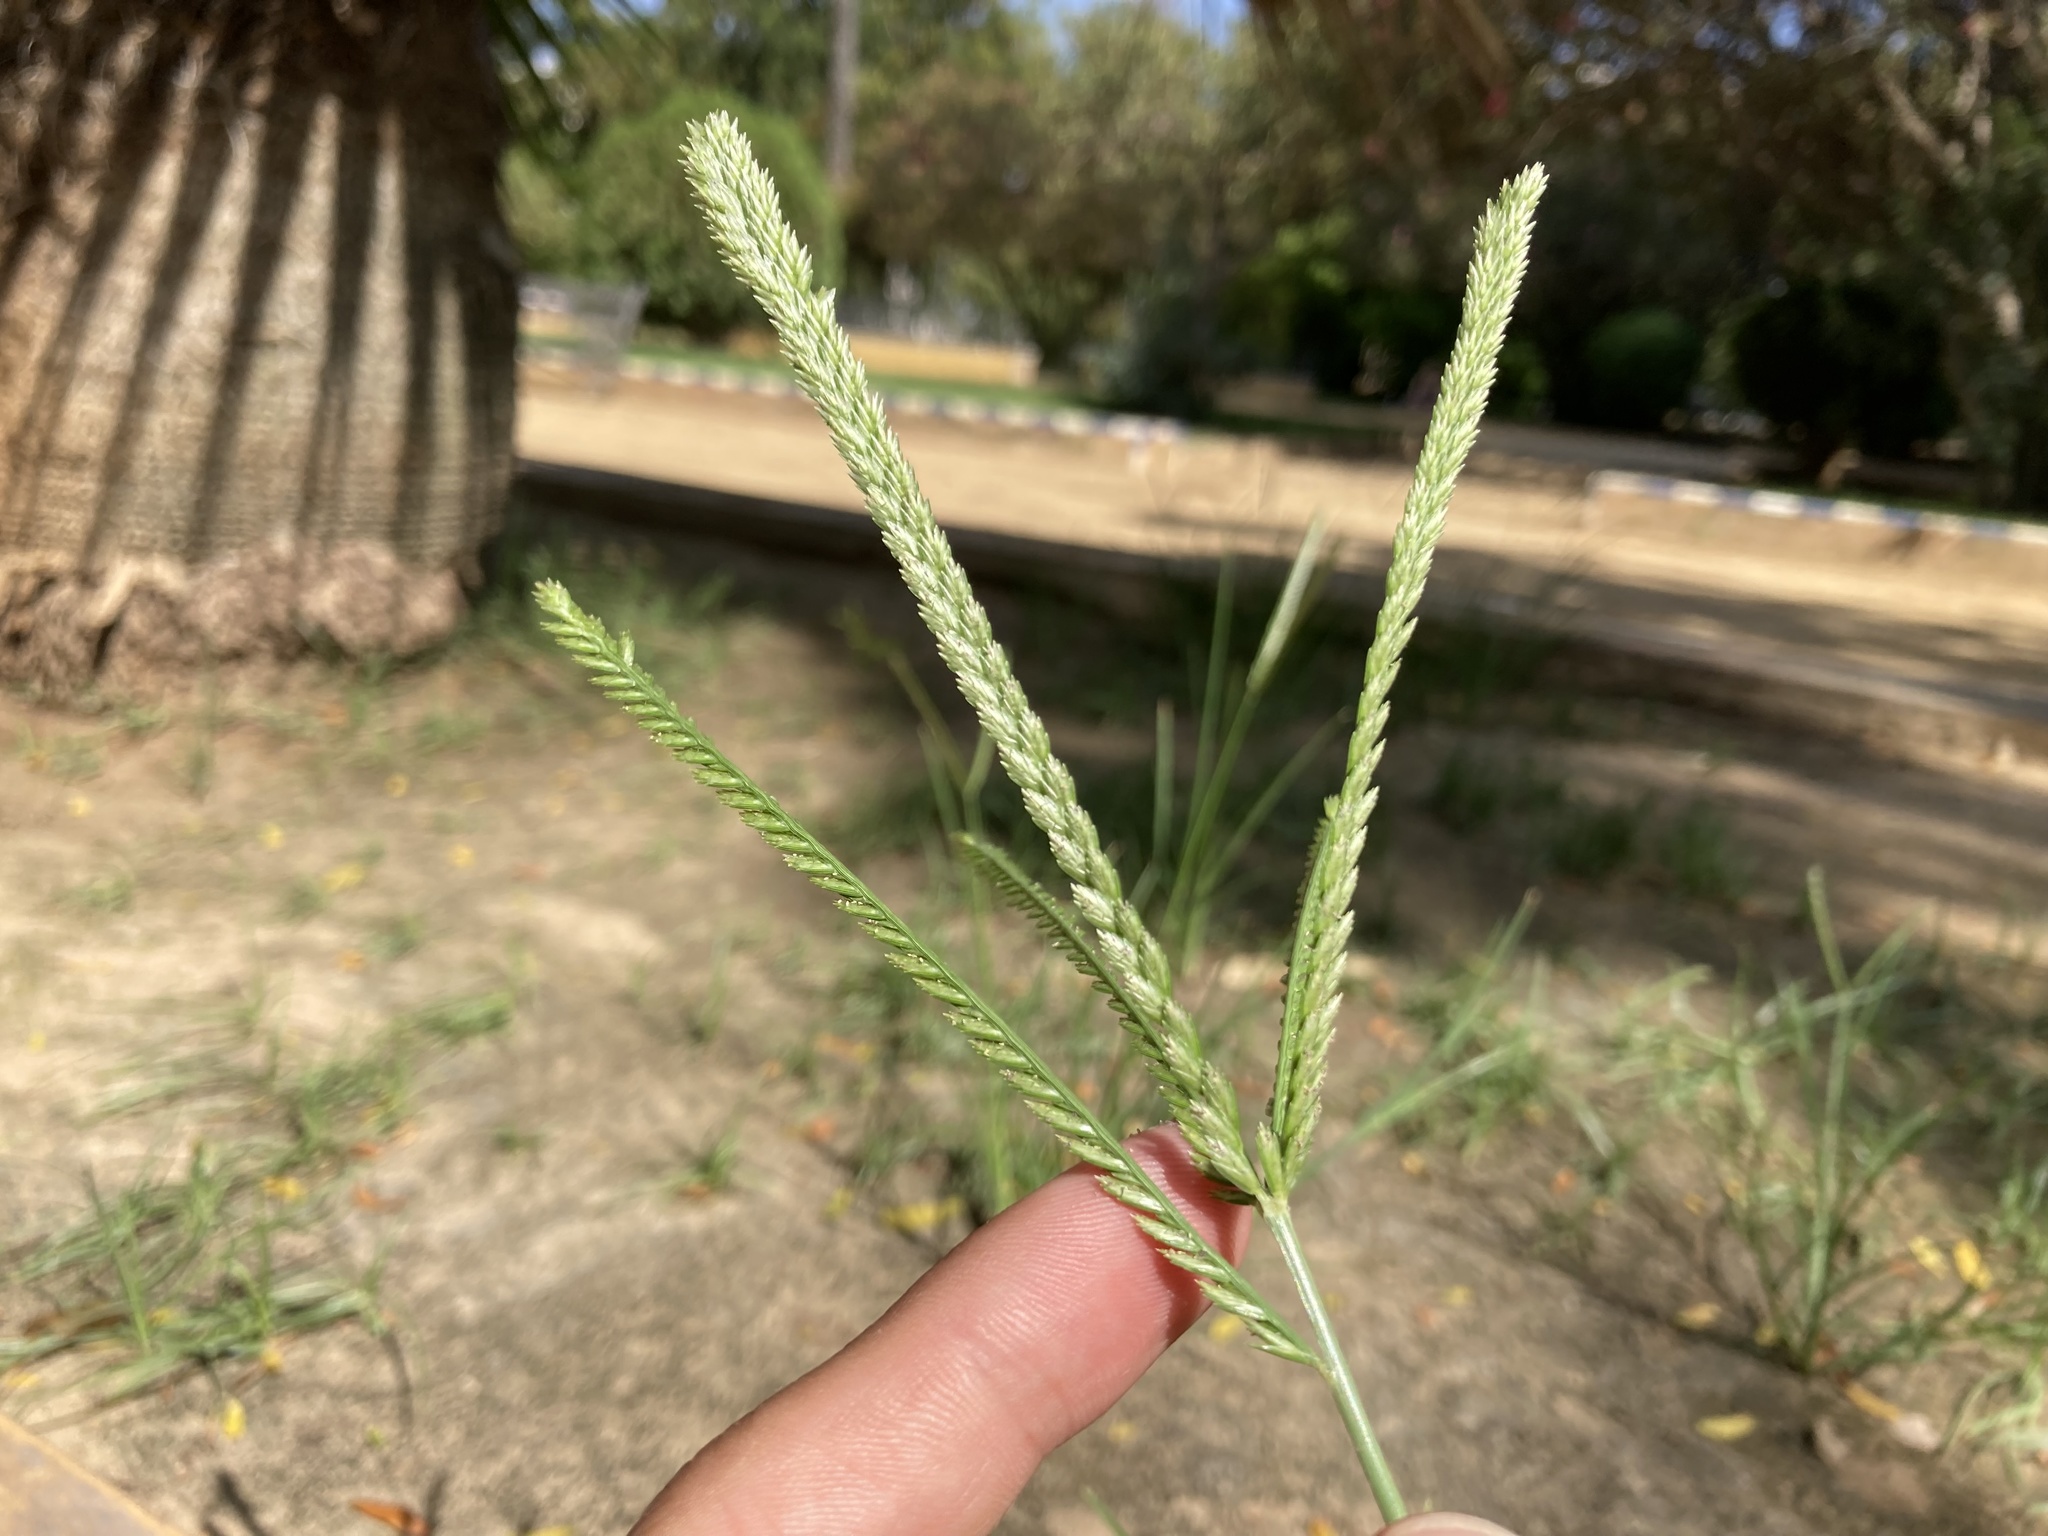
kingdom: Plantae
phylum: Tracheophyta
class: Liliopsida
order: Poales
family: Poaceae
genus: Eleusine
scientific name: Eleusine indica
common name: Yard-grass
